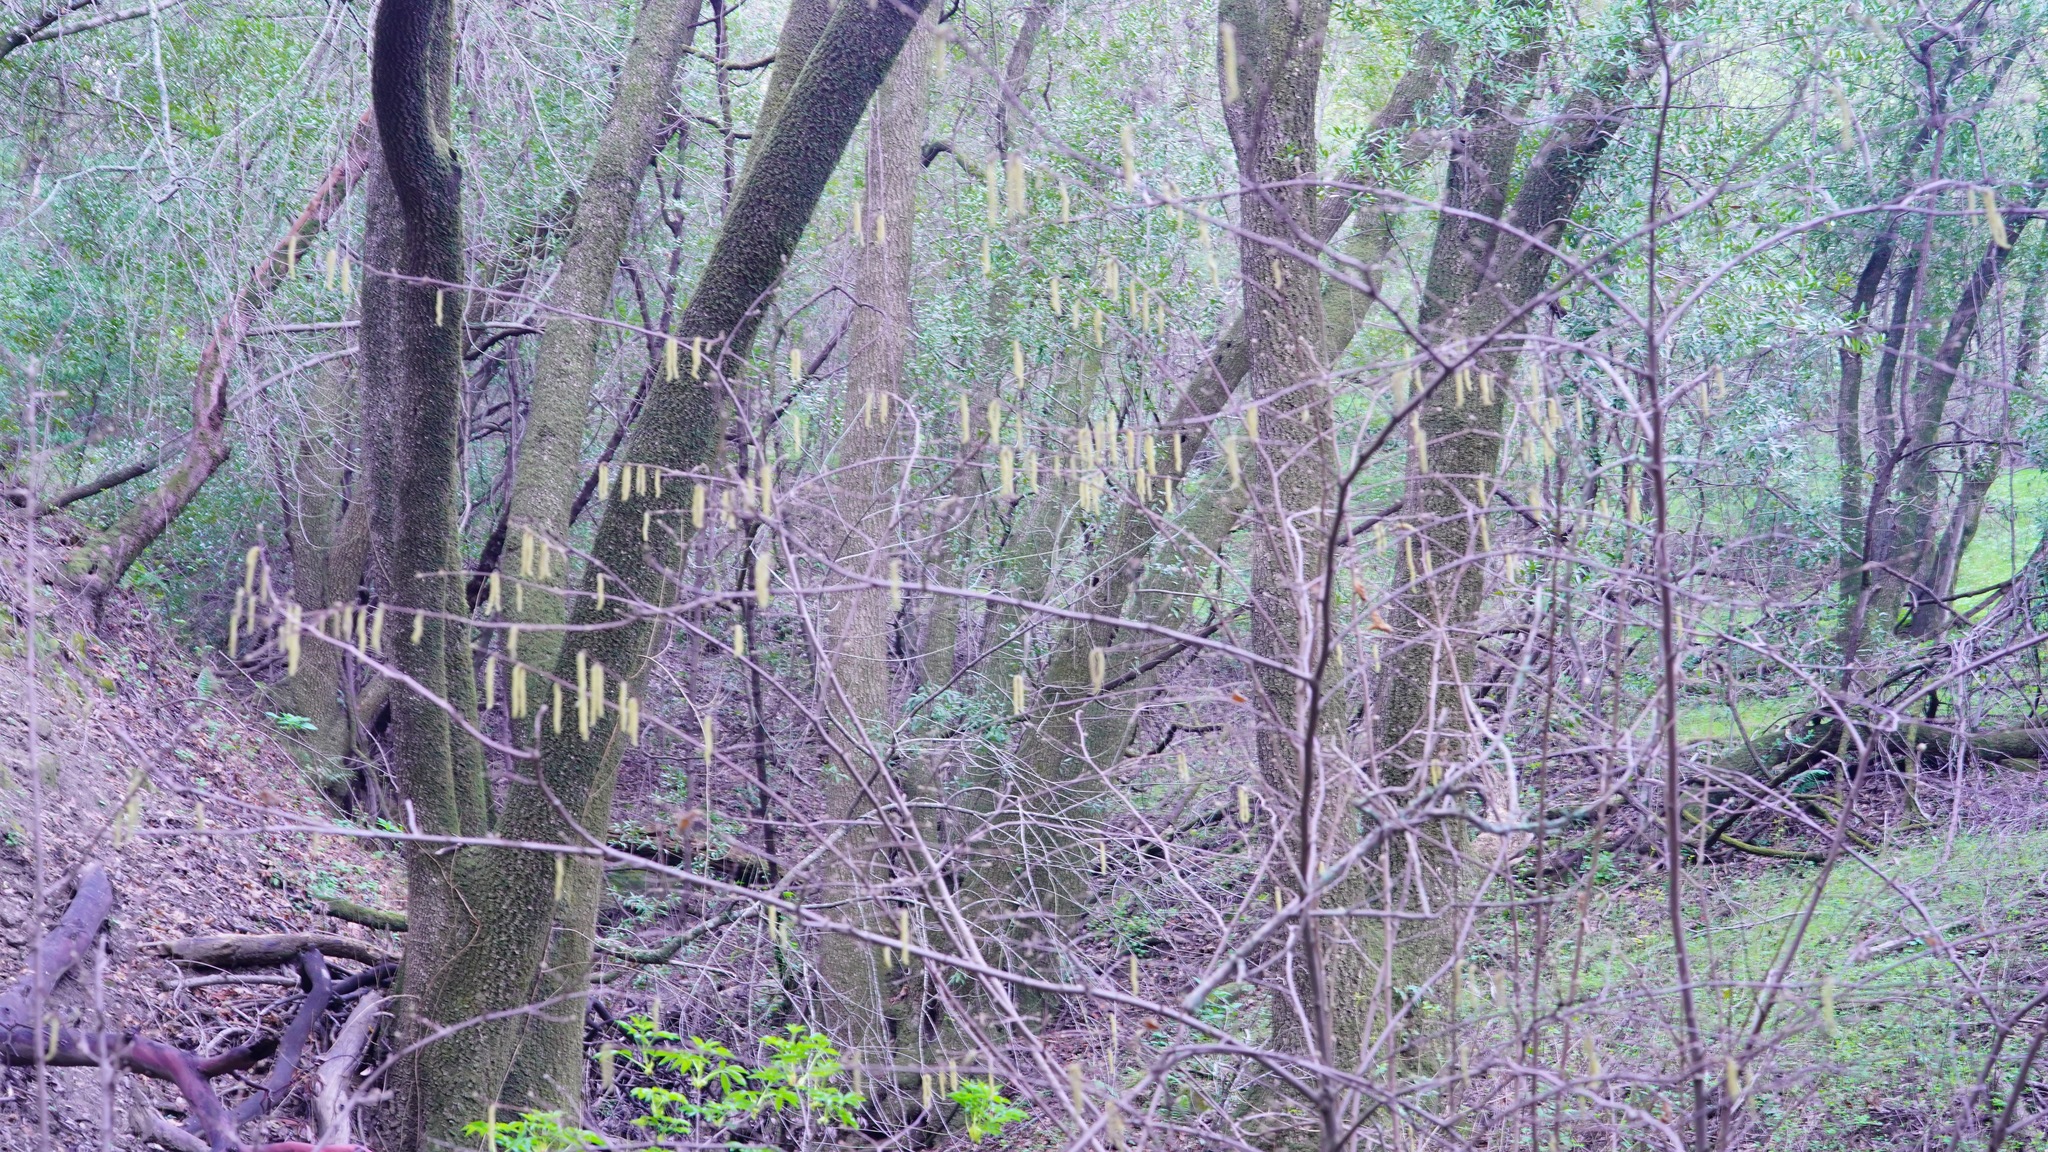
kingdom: Plantae
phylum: Tracheophyta
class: Magnoliopsida
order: Fagales
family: Betulaceae
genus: Corylus
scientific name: Corylus cornuta
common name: Beaked hazel
